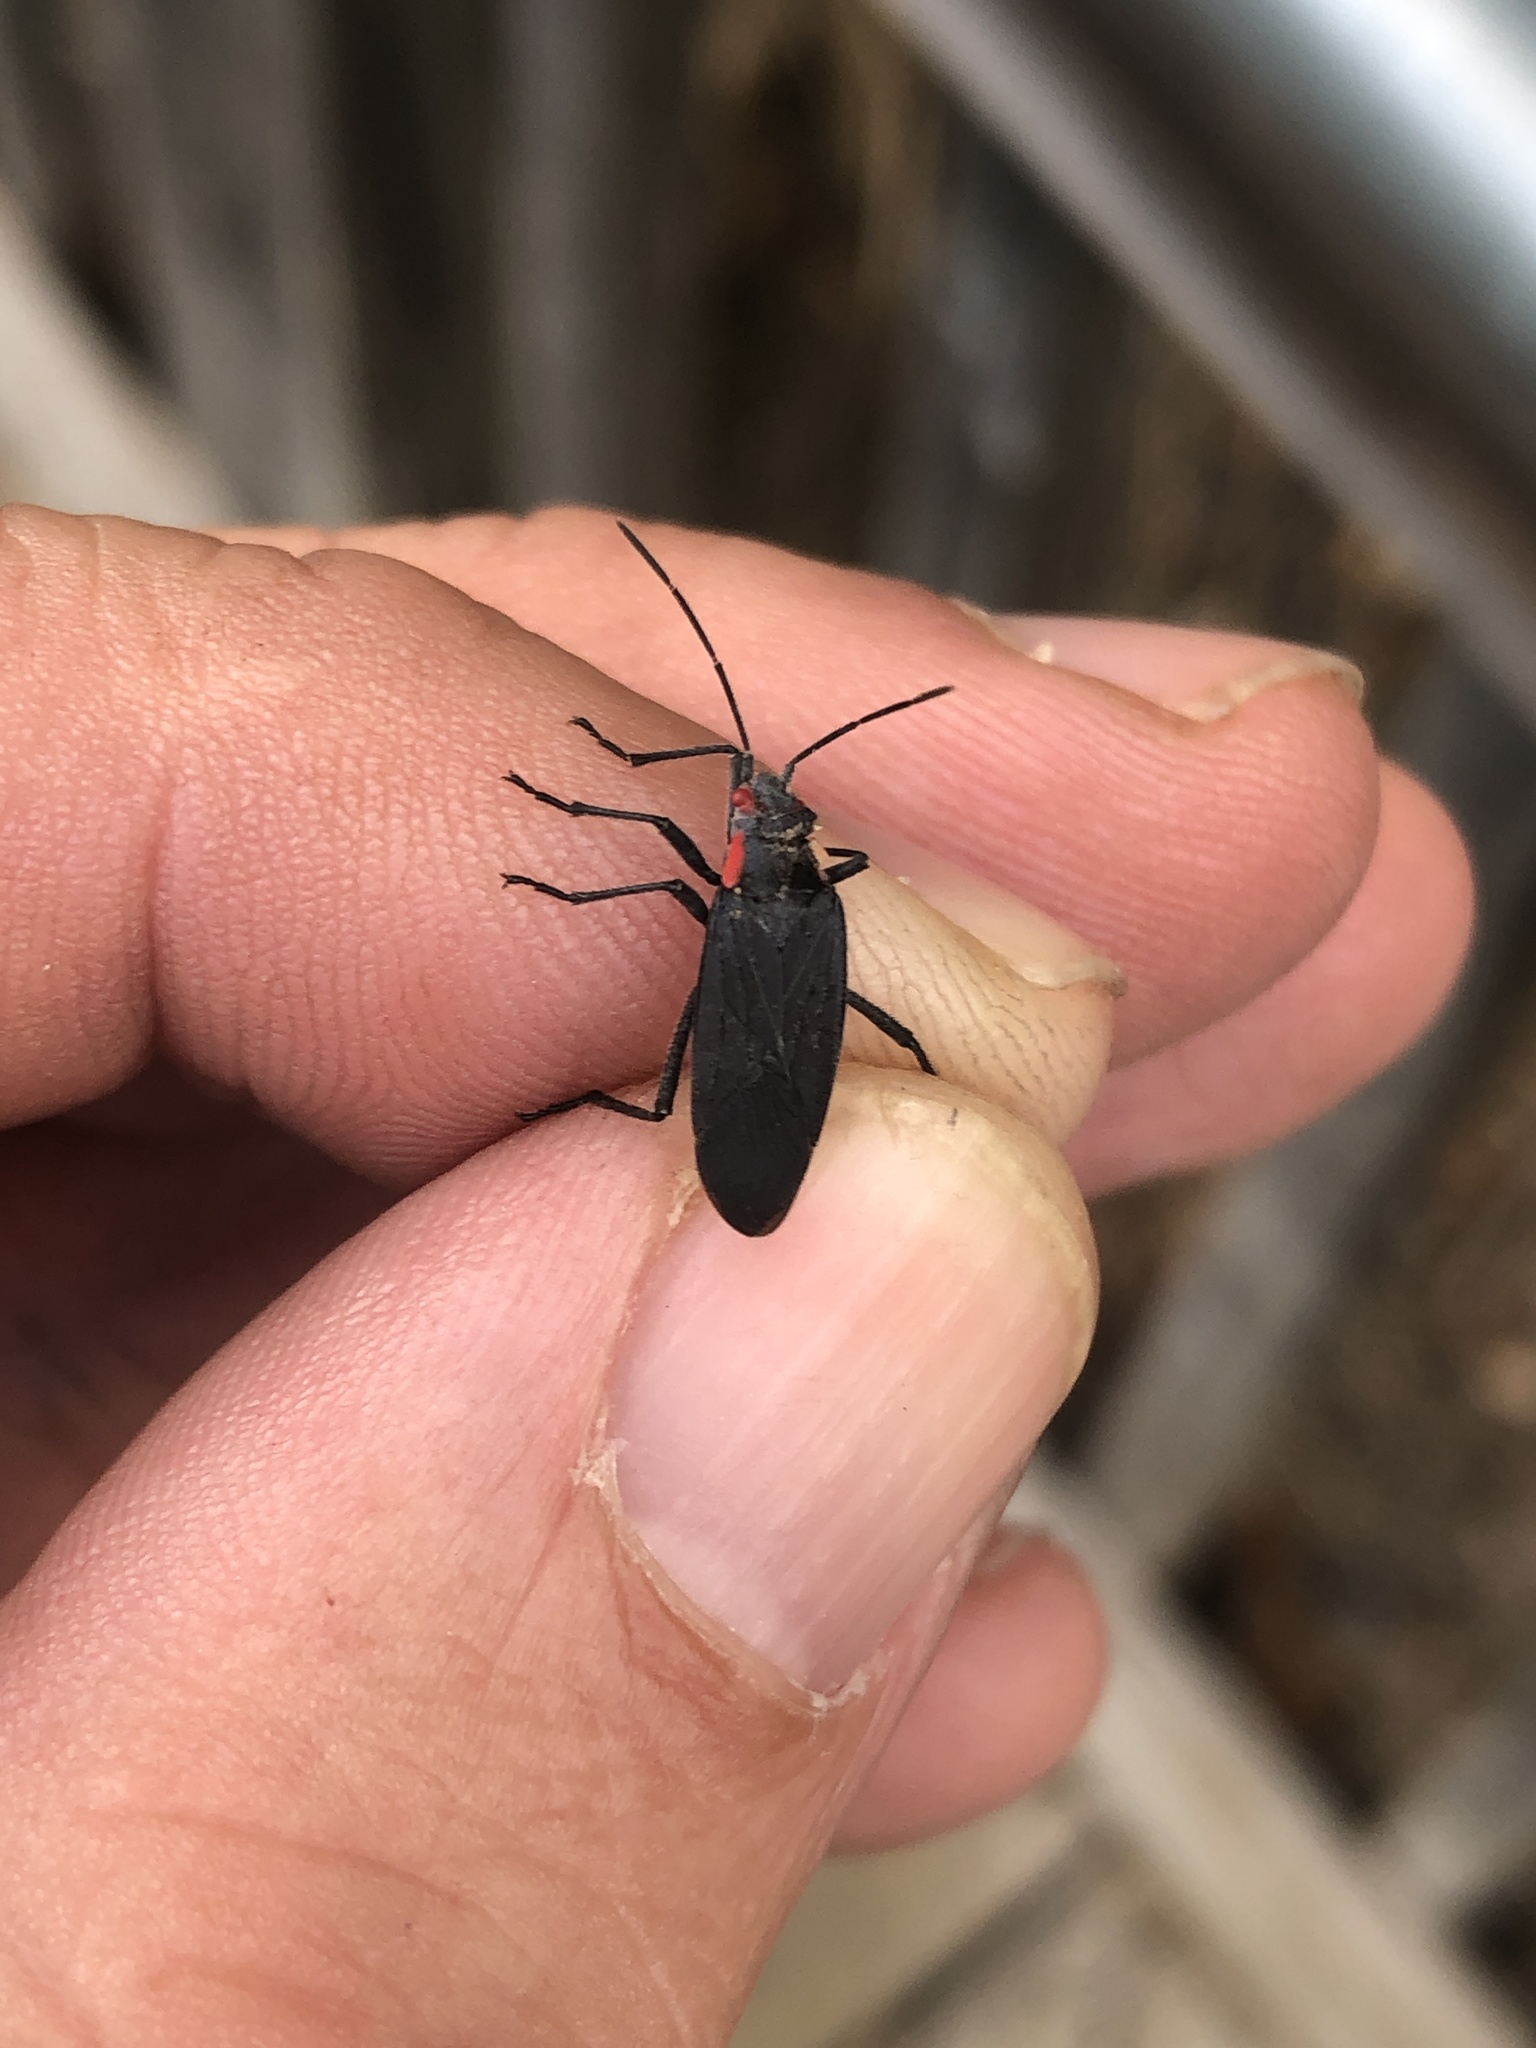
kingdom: Animalia
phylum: Arthropoda
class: Insecta
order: Hemiptera
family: Rhopalidae
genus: Jadera
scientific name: Jadera haematoloma
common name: Red-shouldered bug
